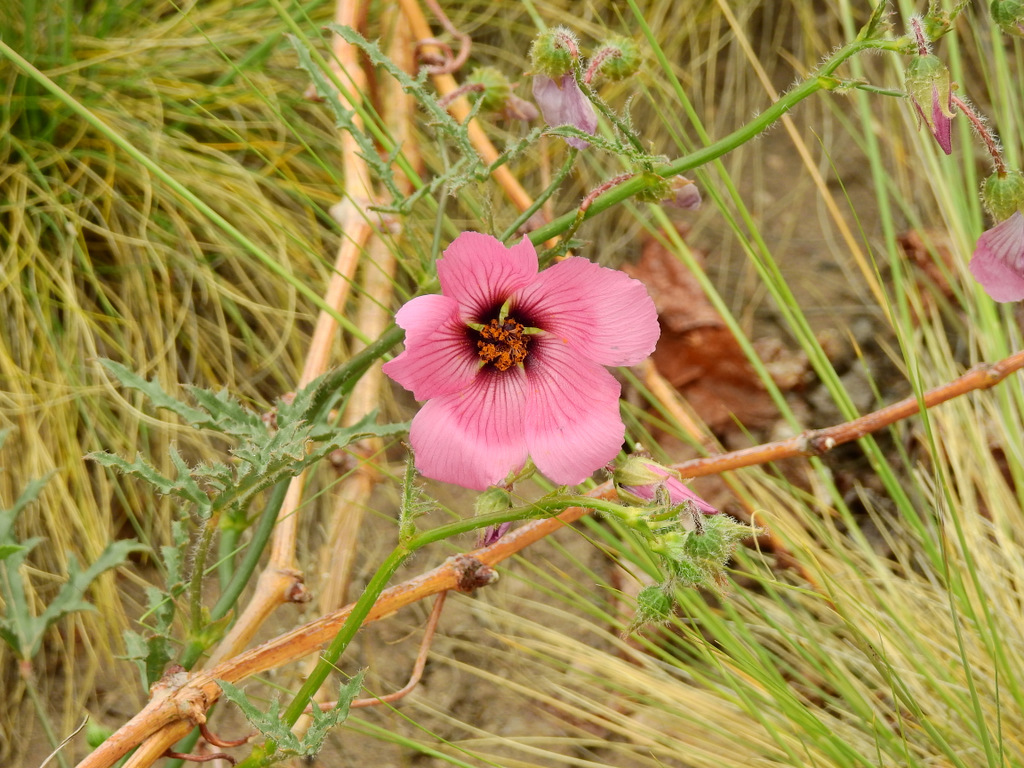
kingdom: Plantae
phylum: Tracheophyta
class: Magnoliopsida
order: Malvales
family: Malvaceae
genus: Lecanophora
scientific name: Lecanophora heterophylla
